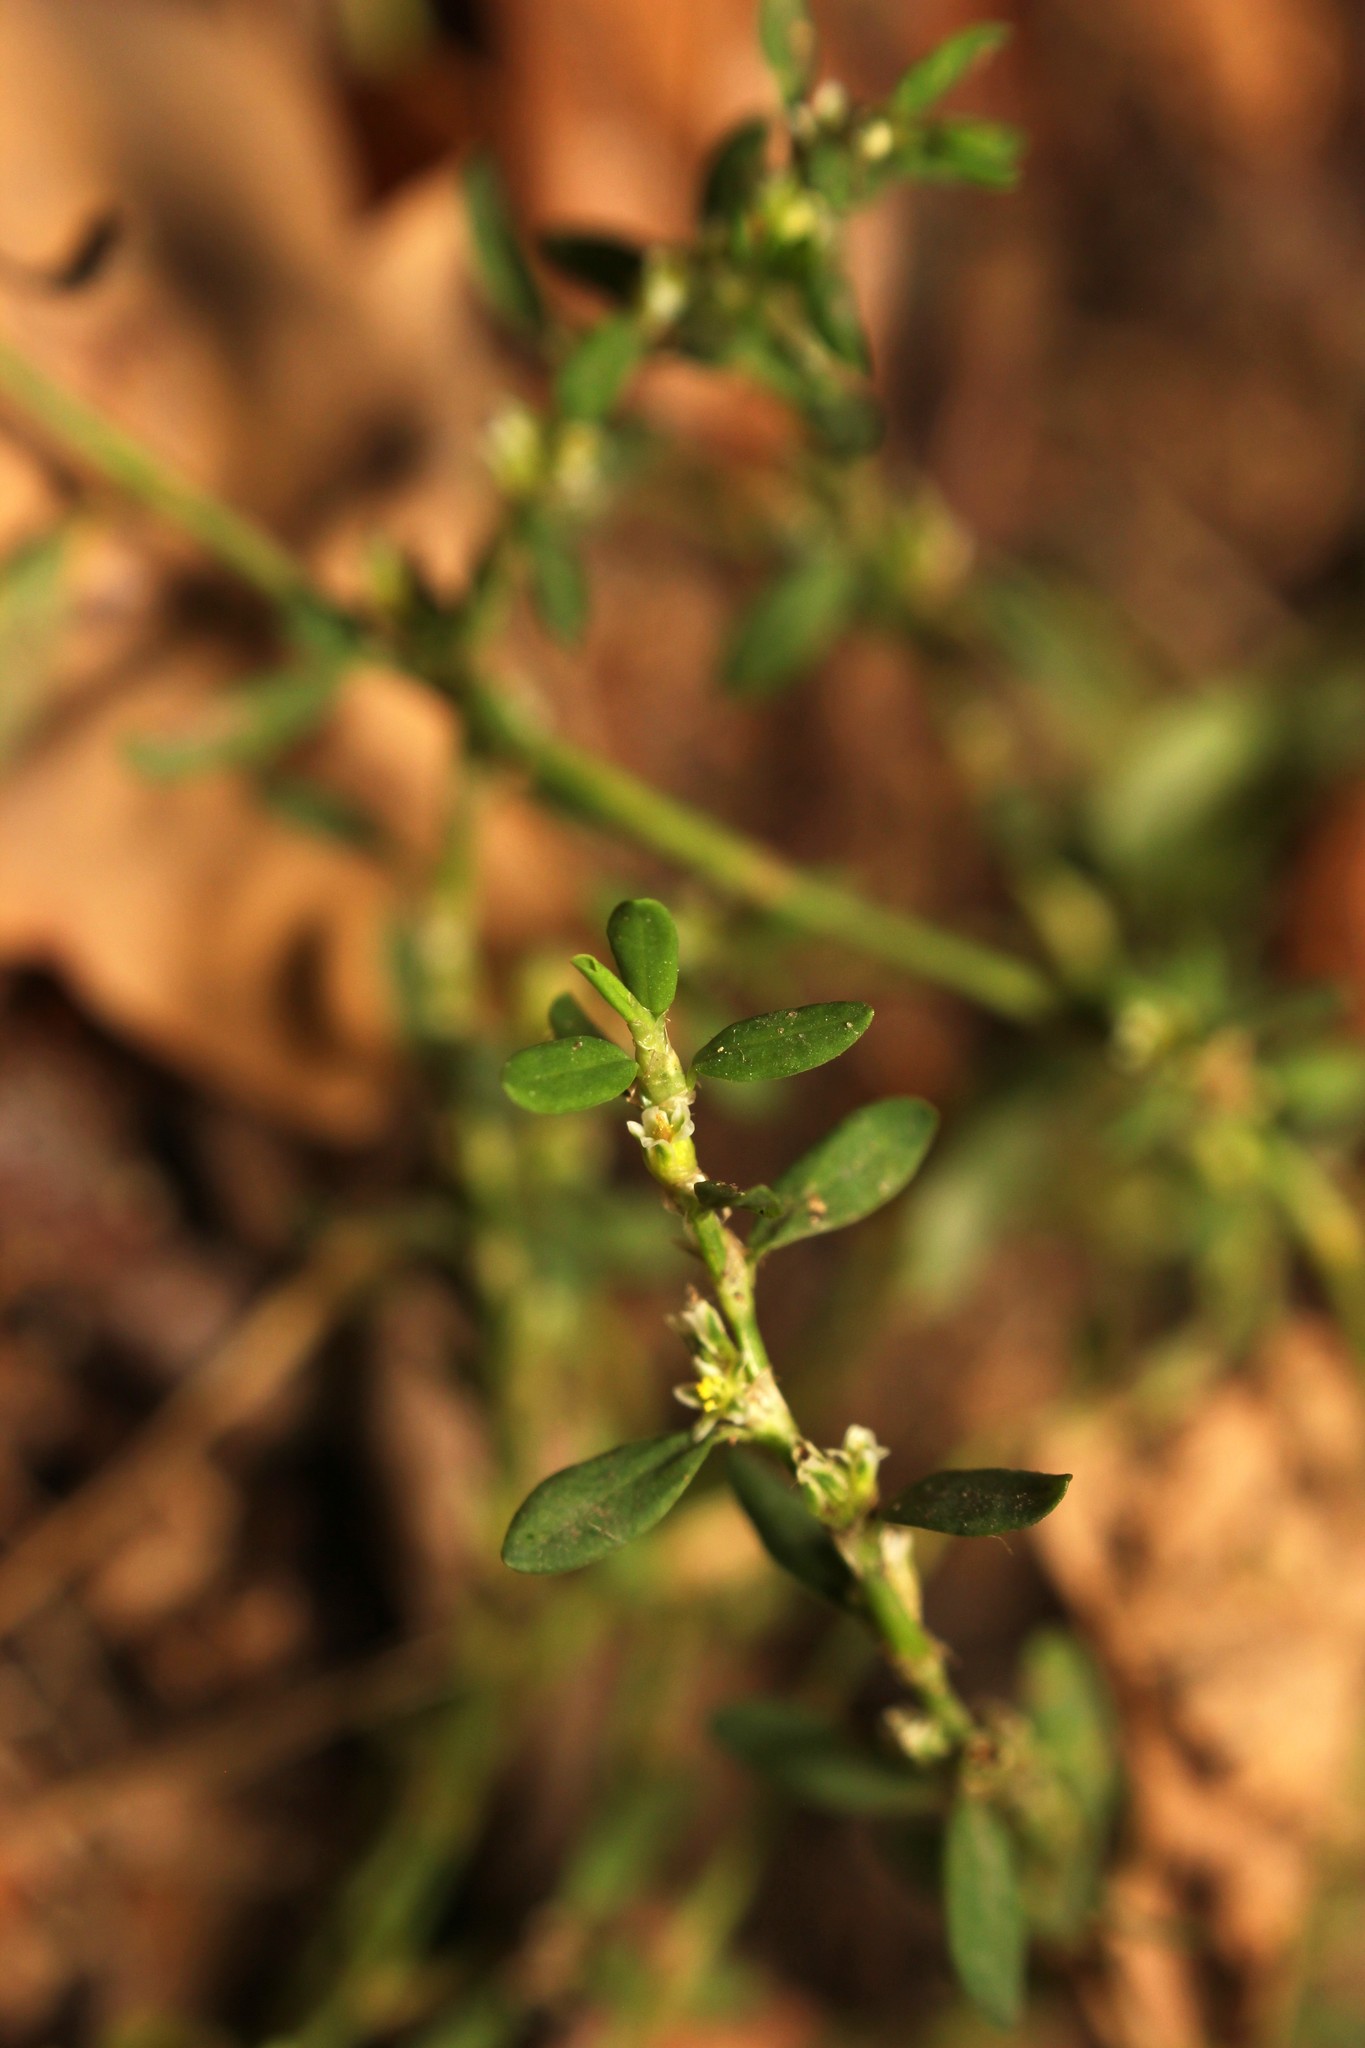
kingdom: Plantae
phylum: Tracheophyta
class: Magnoliopsida
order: Caryophyllales
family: Polygonaceae
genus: Polygonum
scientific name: Polygonum aviculare
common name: Prostrate knotweed
